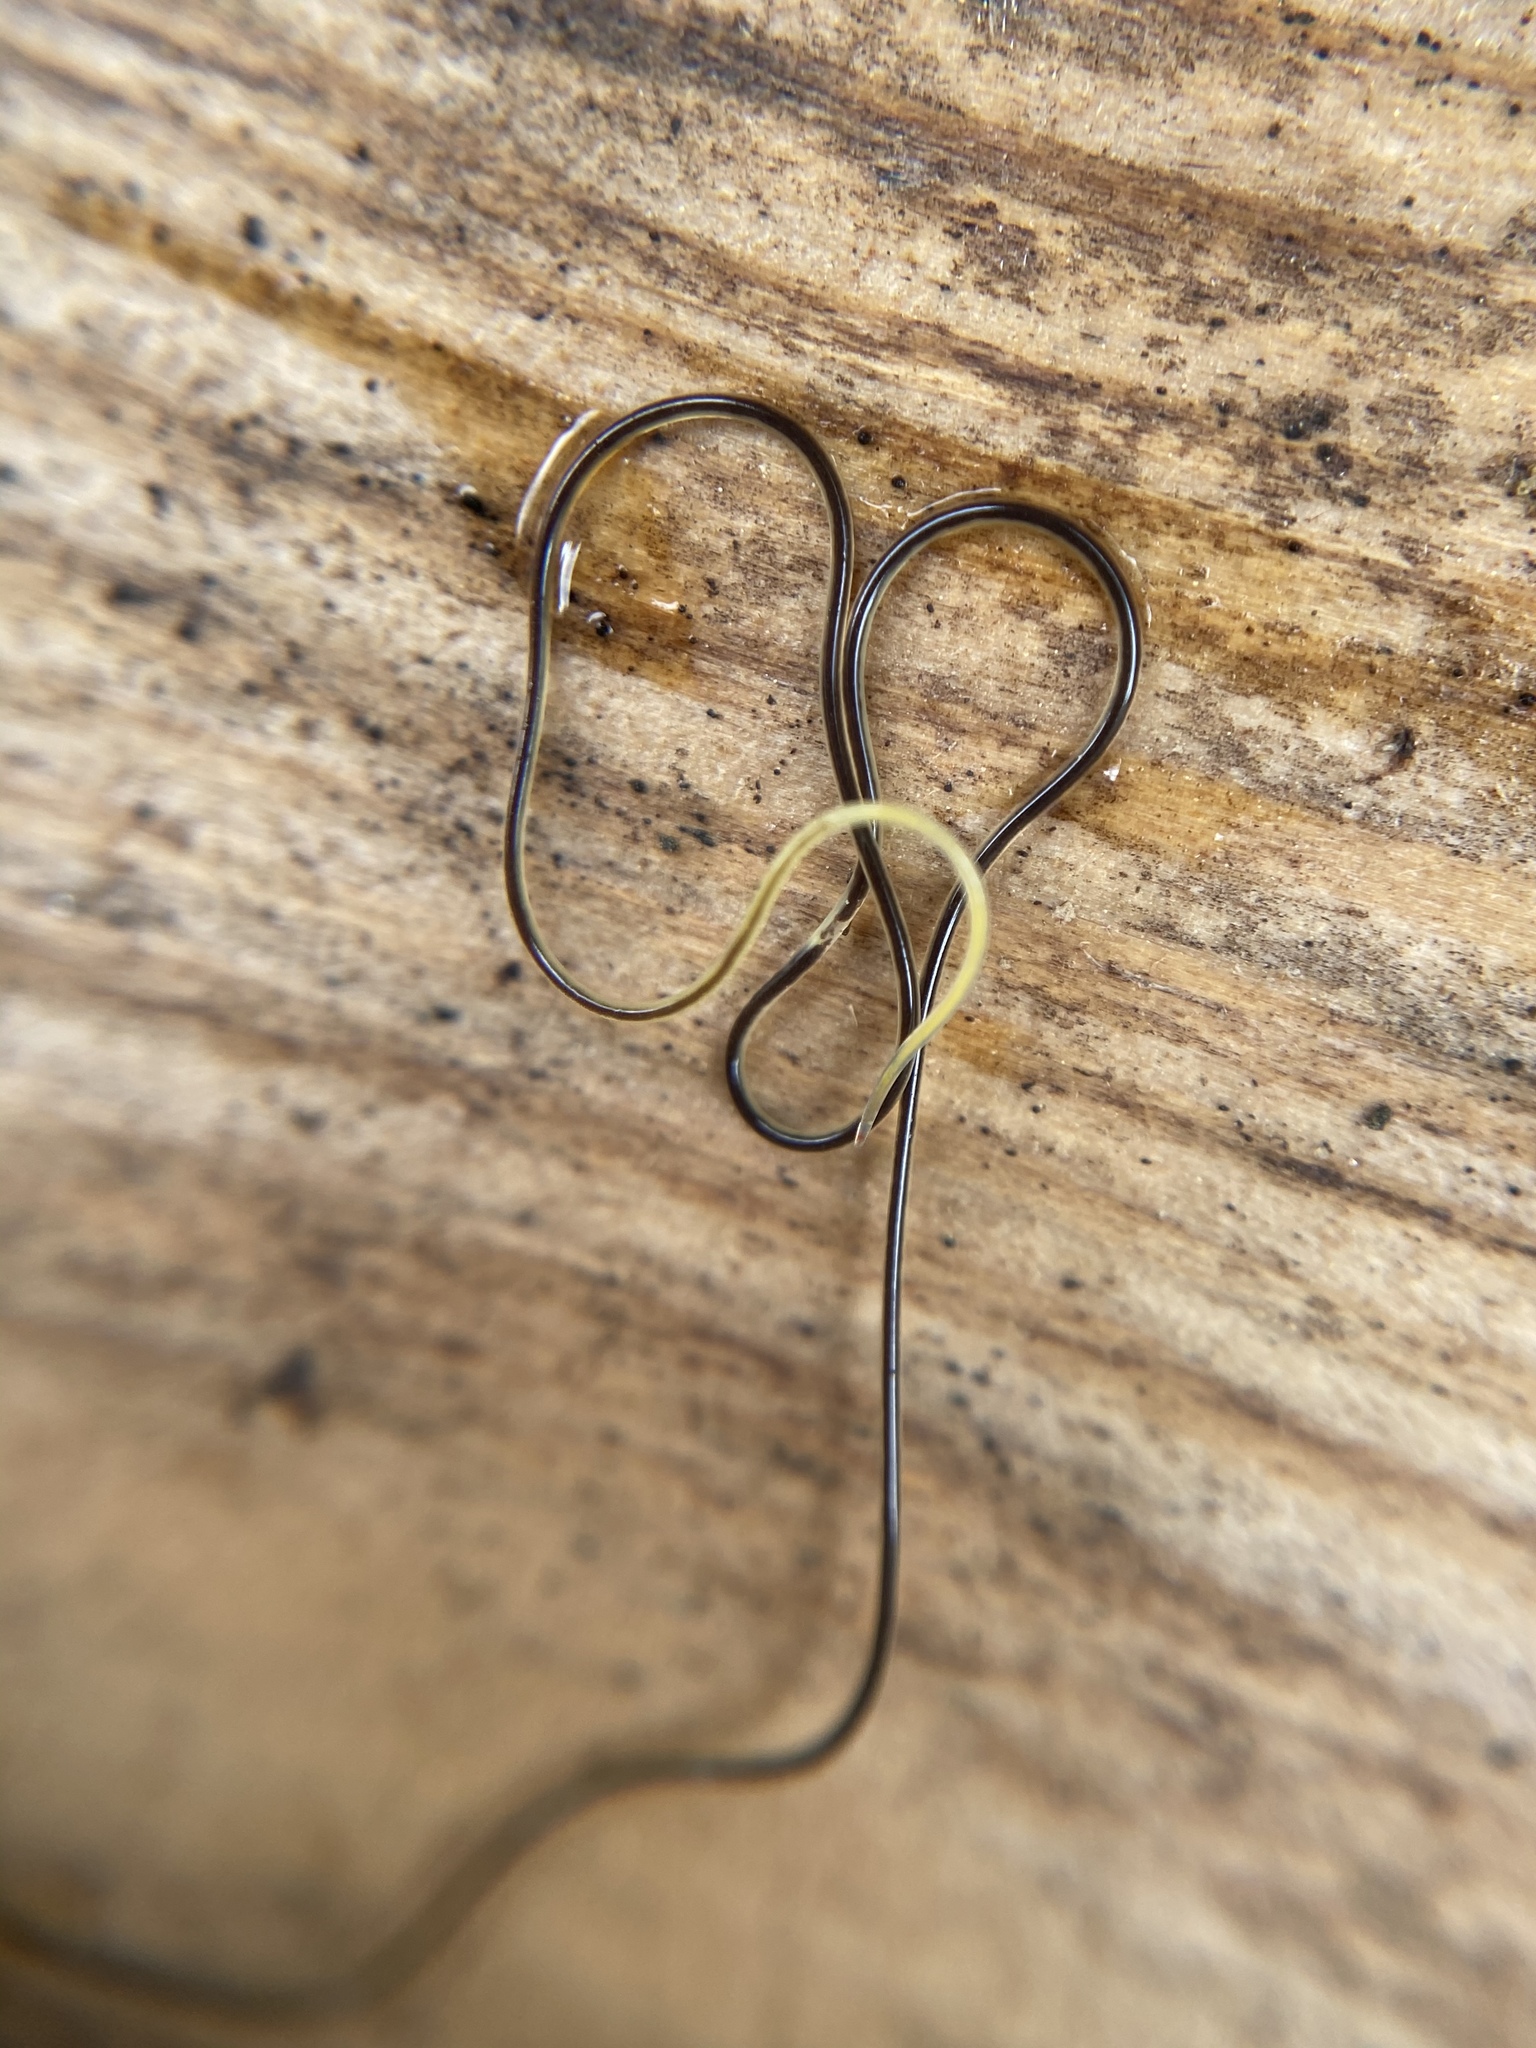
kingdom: Animalia
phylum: Nematoda
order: Mermithida
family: Mermithidae
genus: Mermis
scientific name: Mermis nigrescens
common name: Grasshopper nematode
